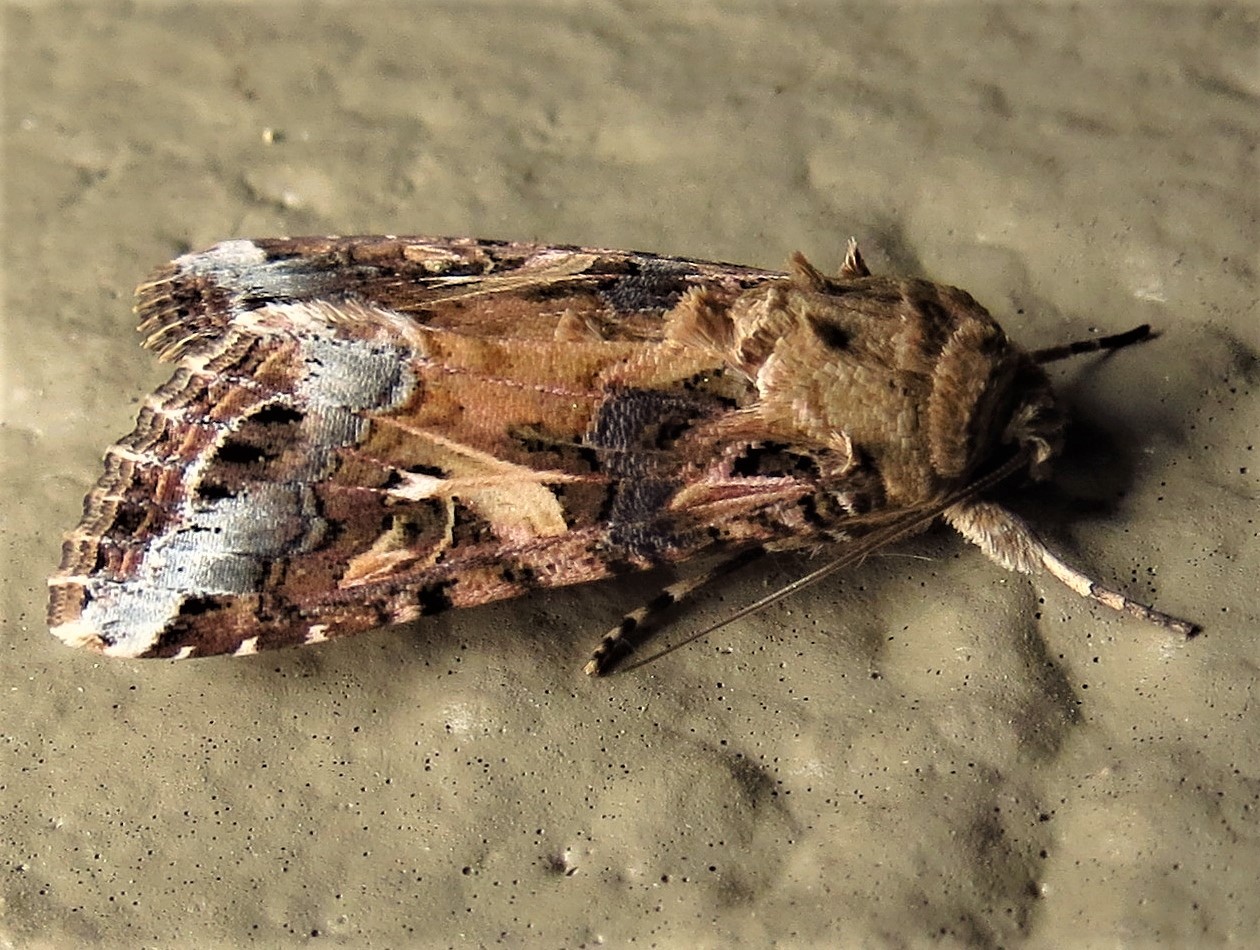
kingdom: Animalia
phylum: Arthropoda
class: Insecta
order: Lepidoptera
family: Noctuidae
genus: Spodoptera
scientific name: Spodoptera ornithogalli
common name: Yellow-striped armyworm
